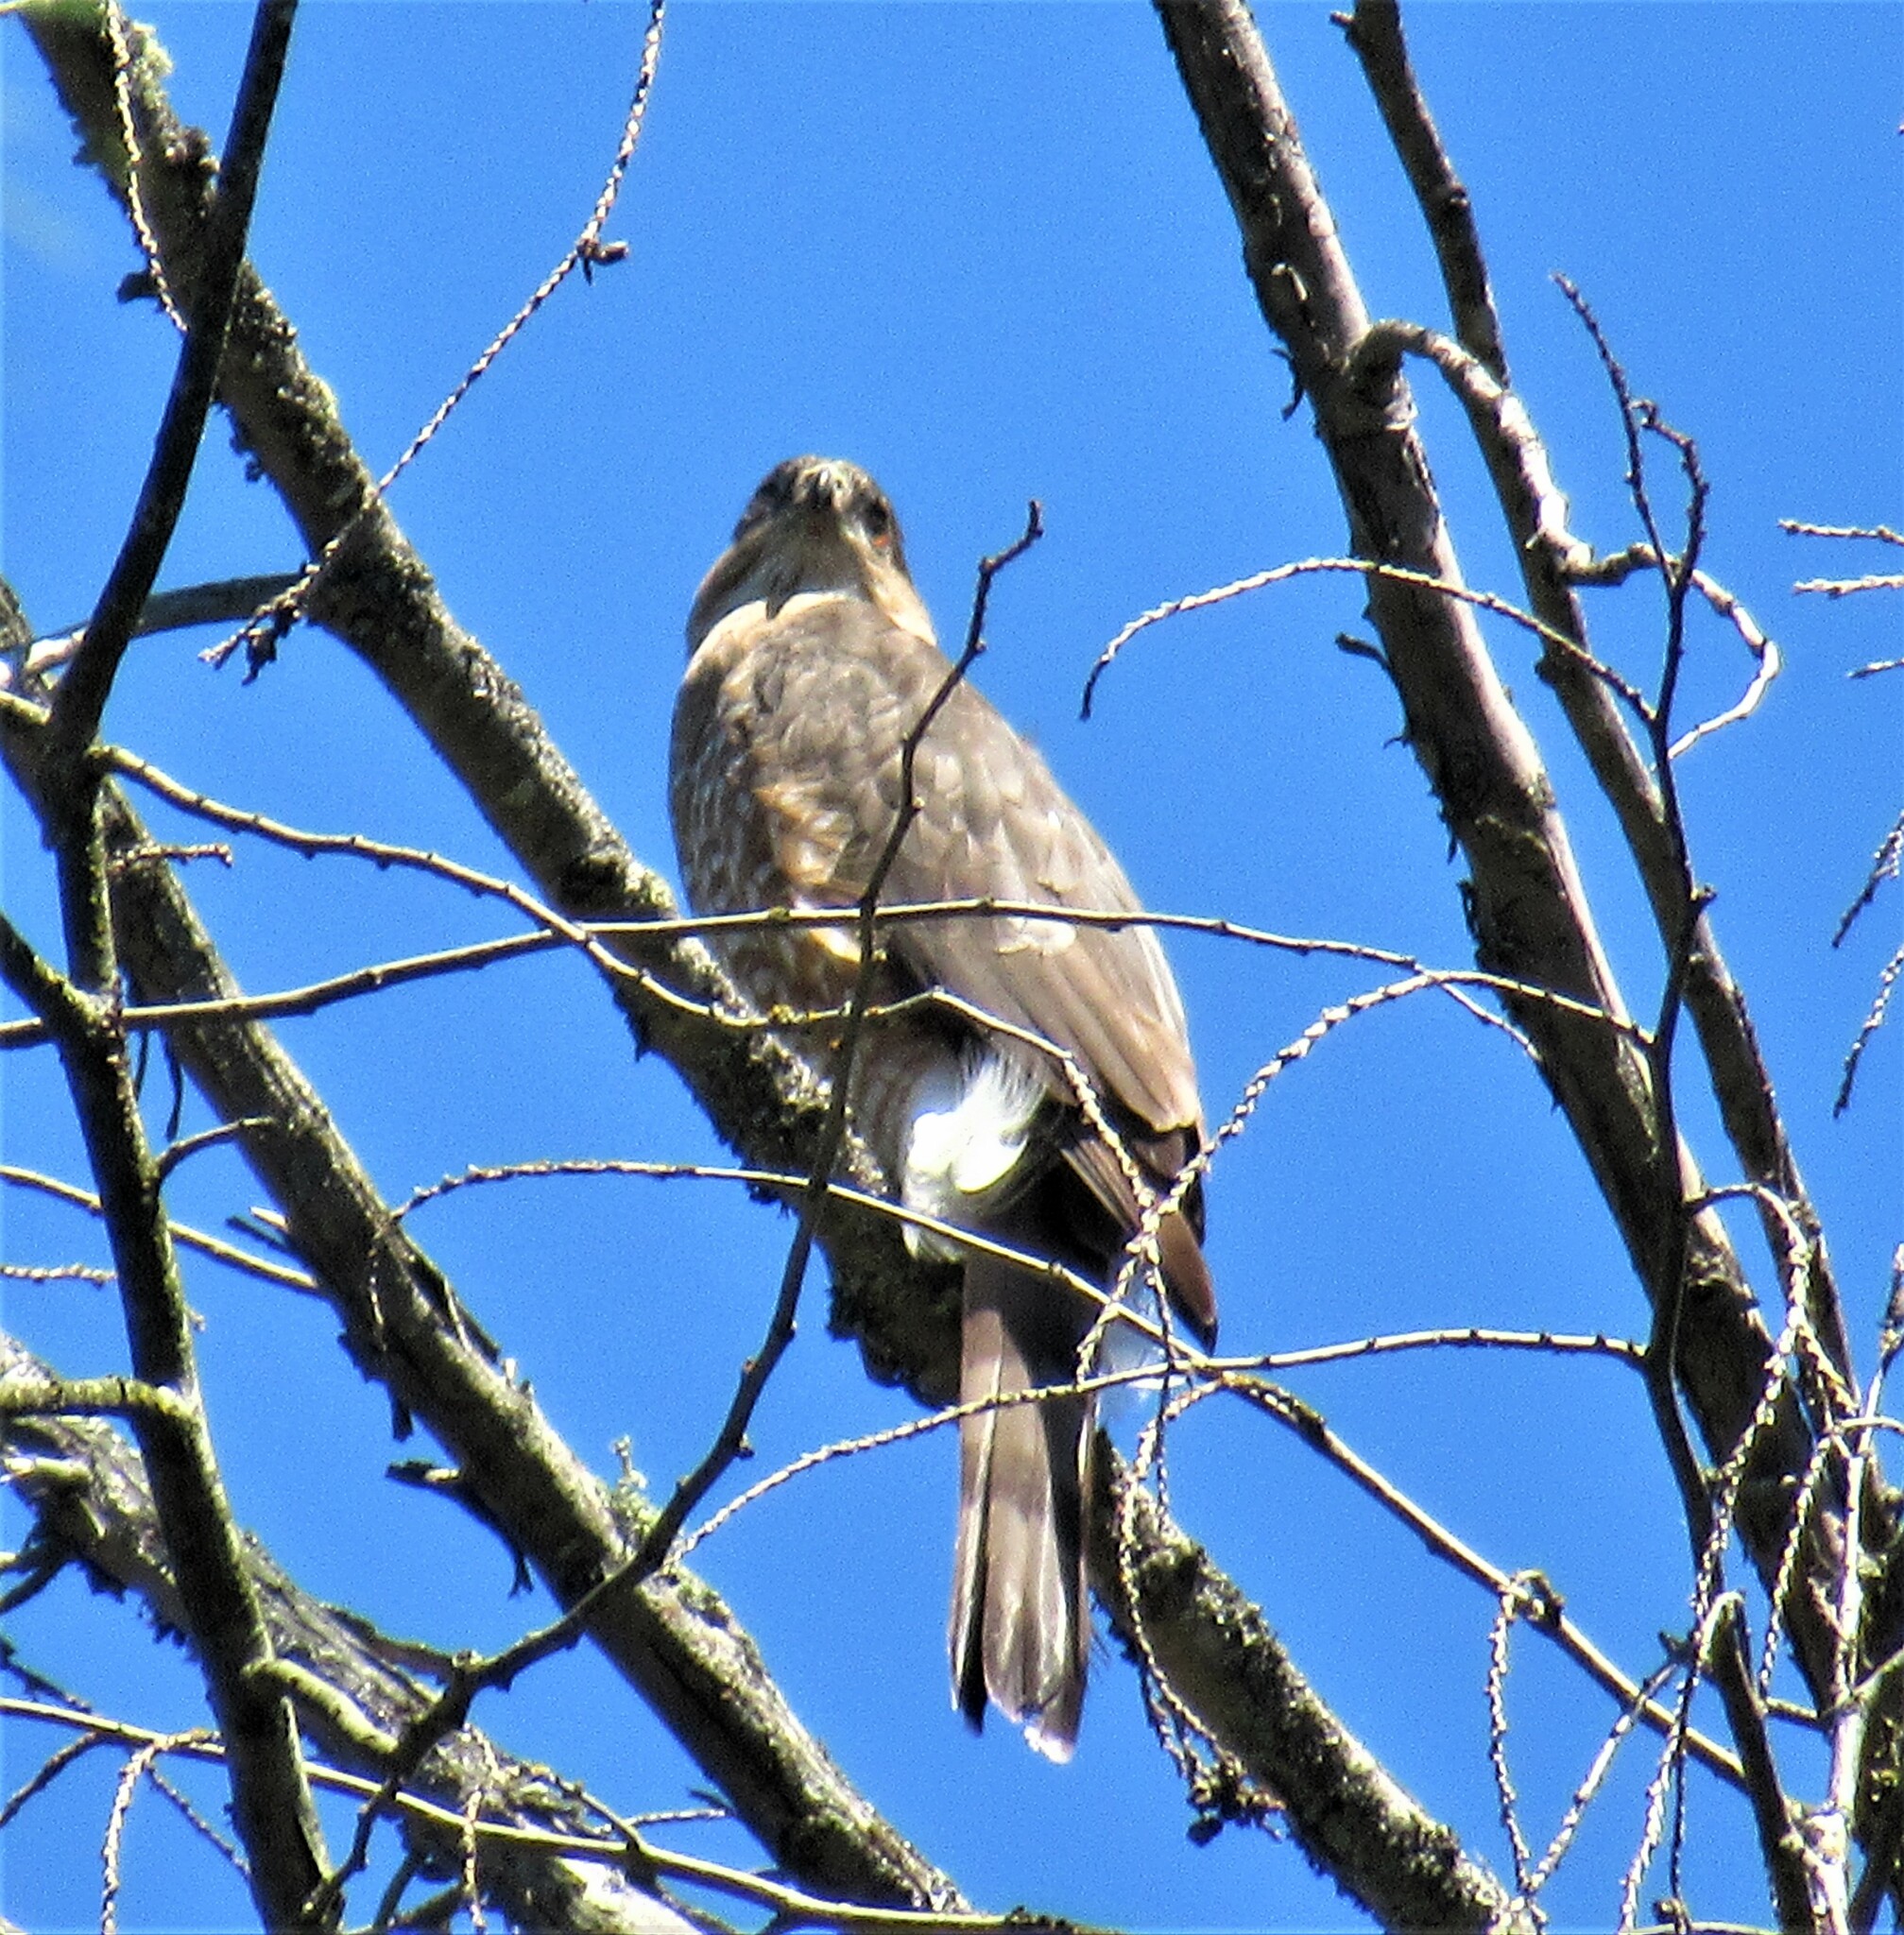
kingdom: Animalia
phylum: Chordata
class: Aves
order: Accipitriformes
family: Accipitridae
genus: Accipiter
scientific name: Accipiter cooperii
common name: Cooper's hawk
